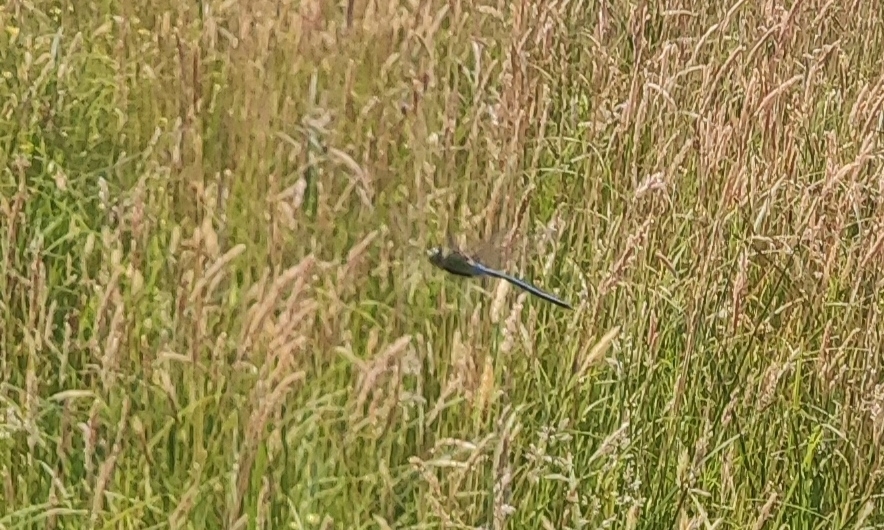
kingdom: Animalia
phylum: Arthropoda
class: Insecta
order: Odonata
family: Aeshnidae
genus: Anax
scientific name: Anax imperator
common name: Emperor dragonfly
